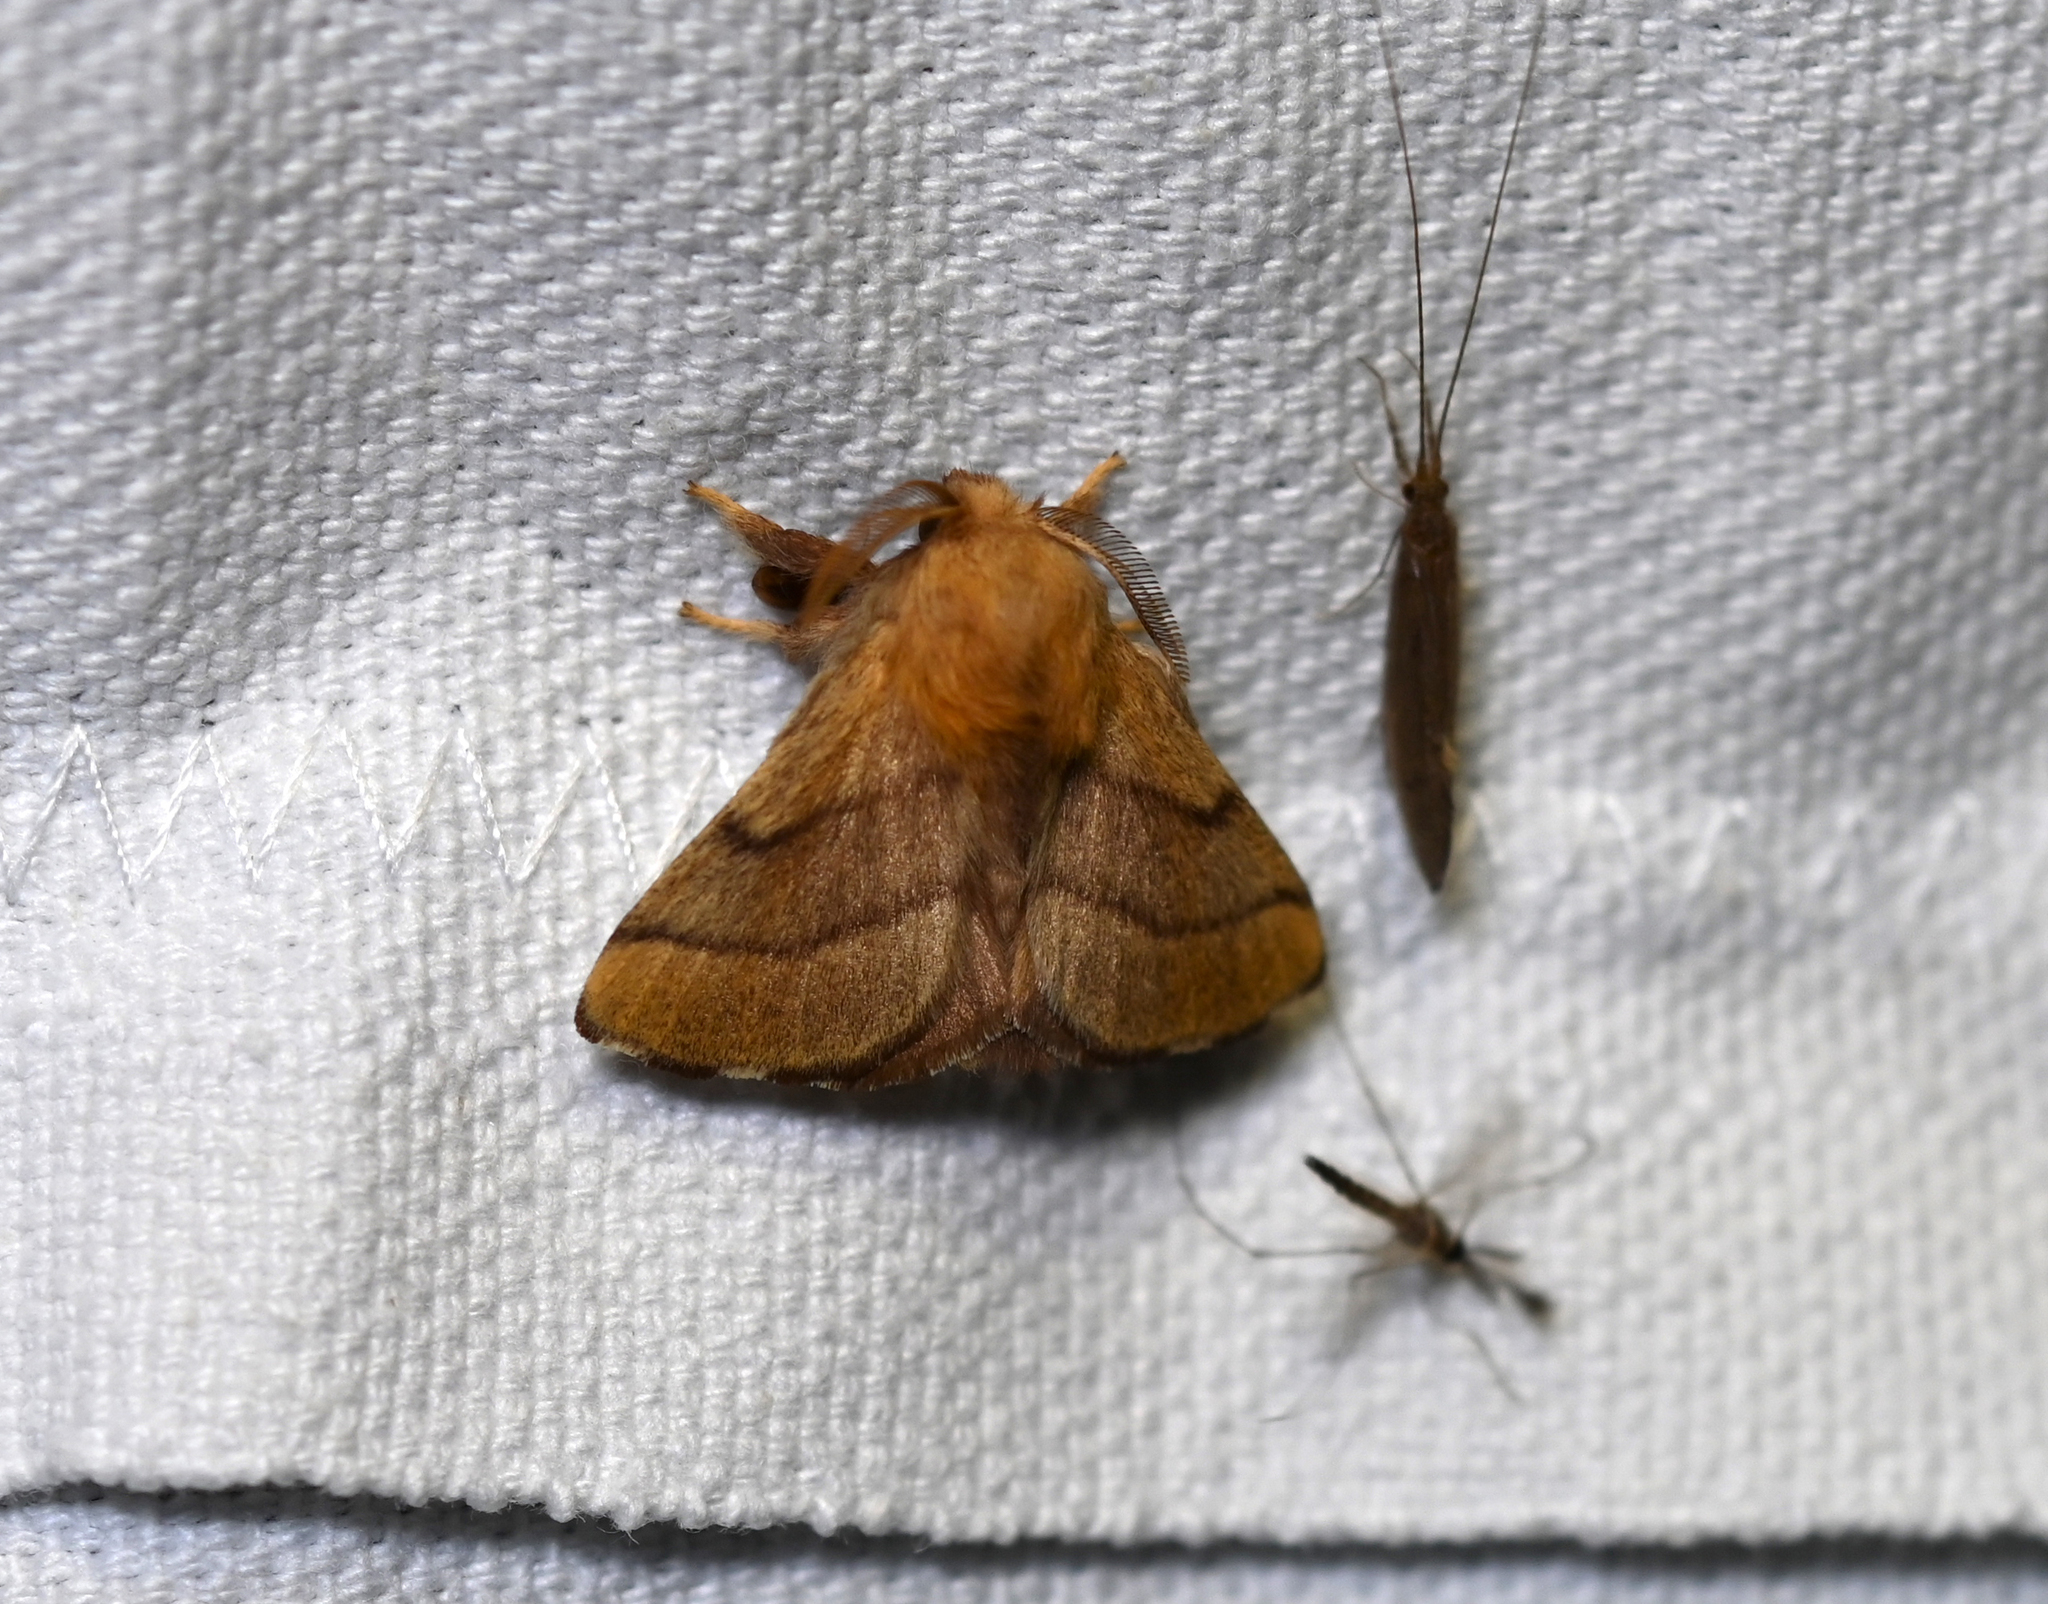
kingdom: Animalia
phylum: Arthropoda
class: Insecta
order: Lepidoptera
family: Lasiocampidae
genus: Malacosoma
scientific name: Malacosoma disstria
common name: Forest tent caterpillar
